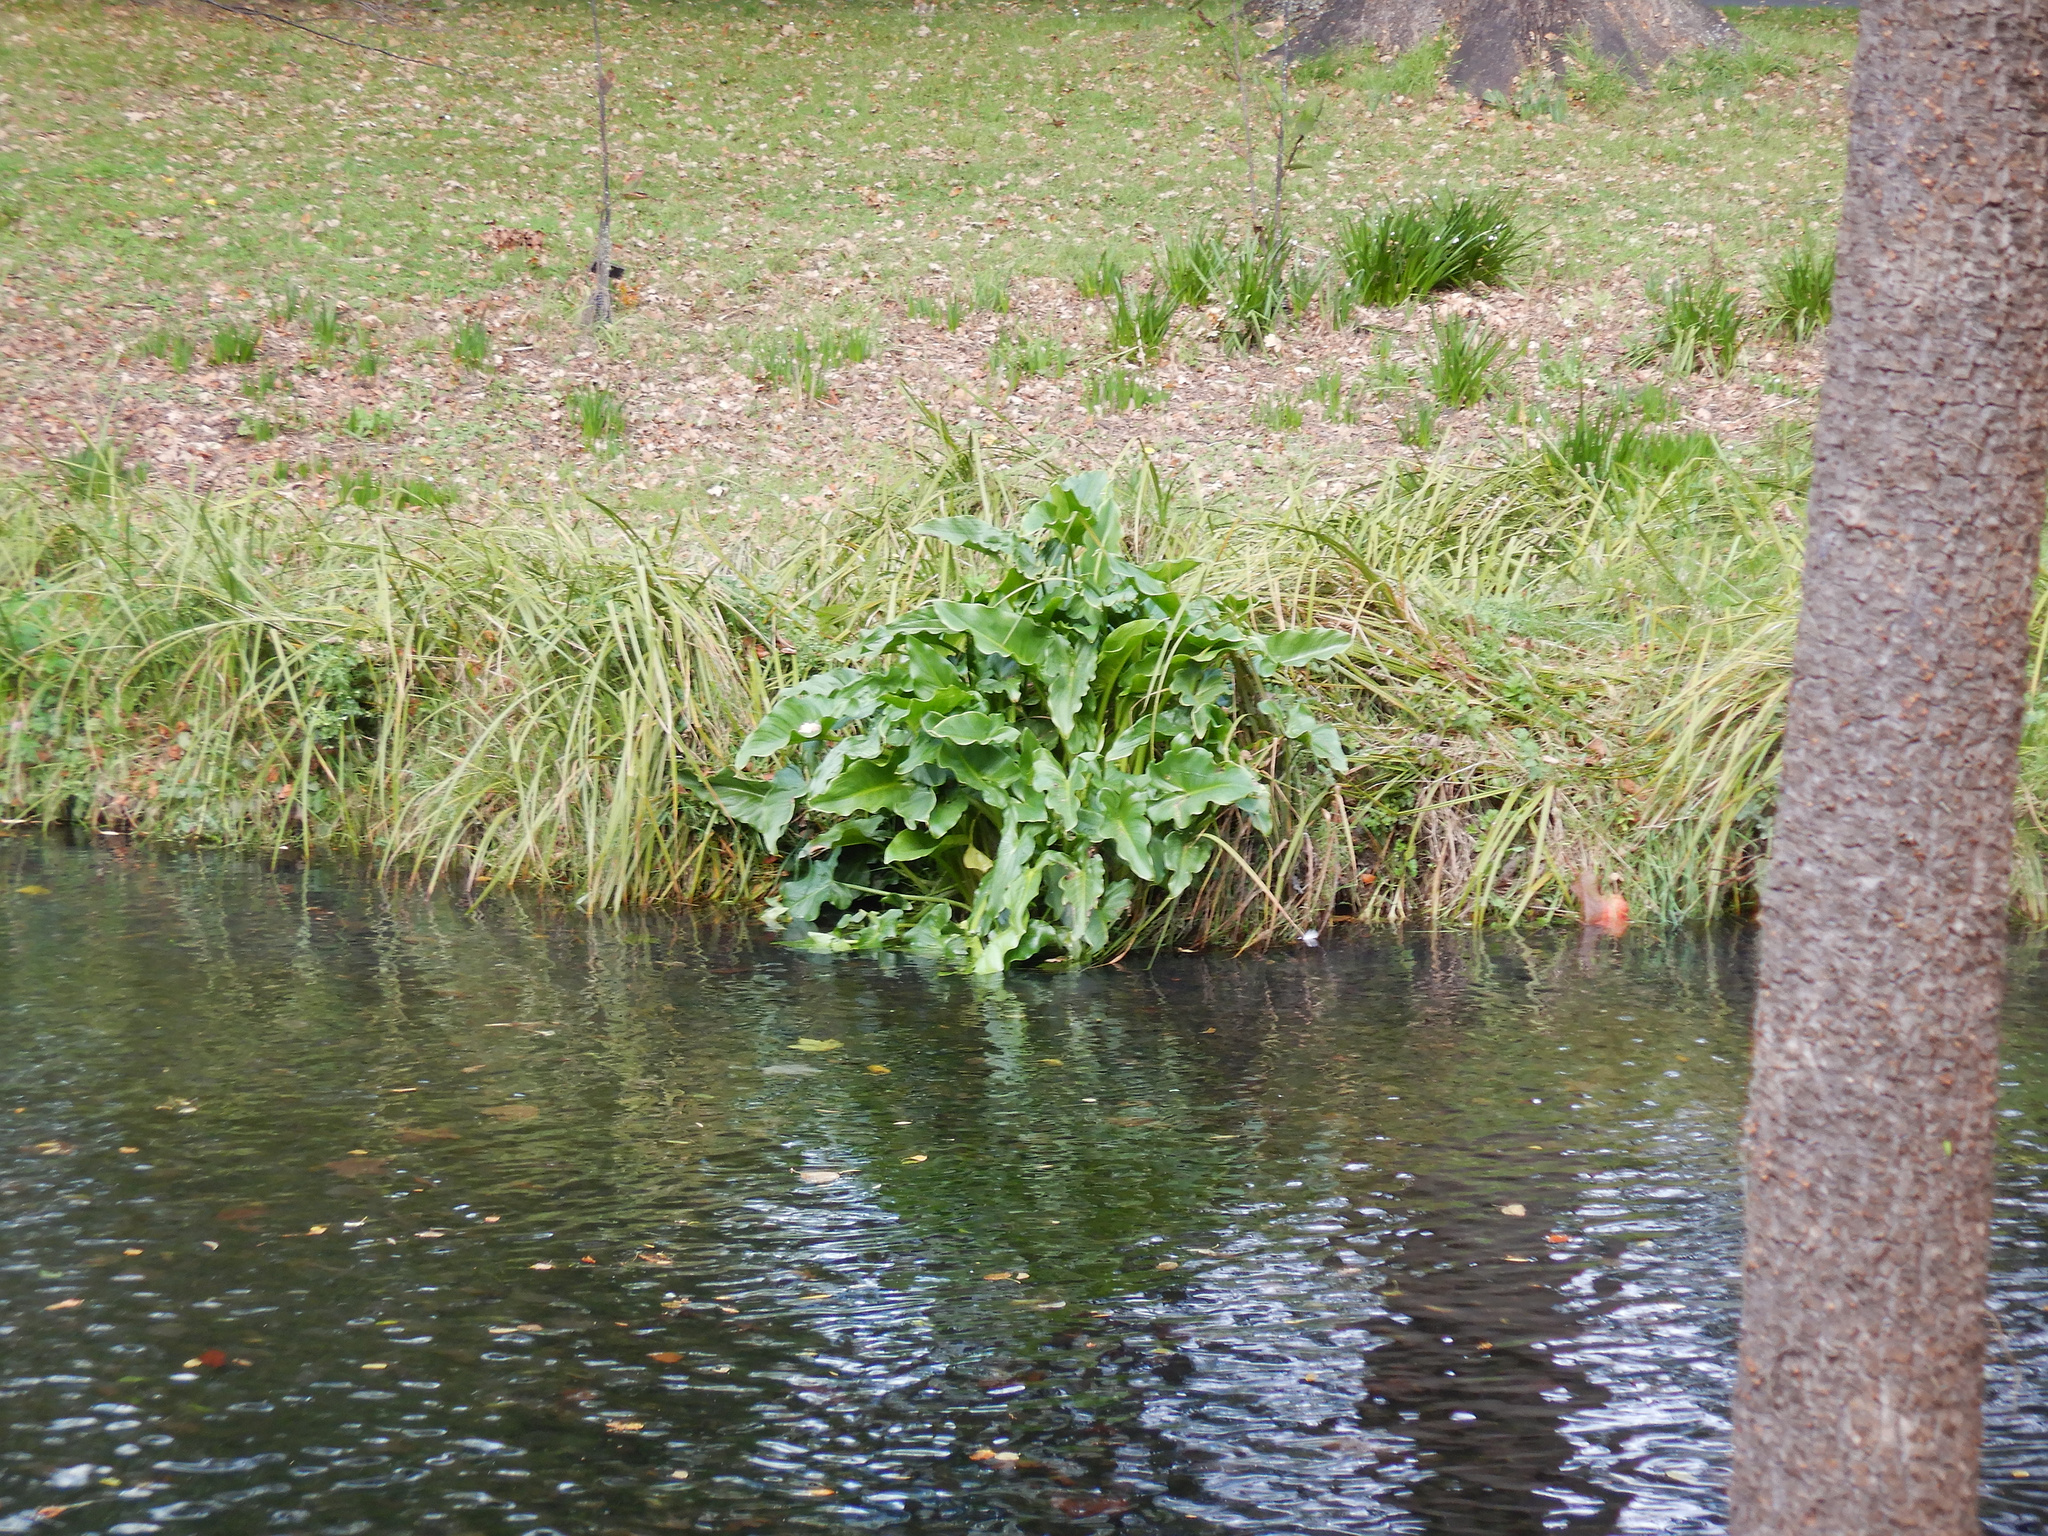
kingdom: Plantae
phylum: Tracheophyta
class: Liliopsida
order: Alismatales
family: Araceae
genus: Zantedeschia
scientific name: Zantedeschia aethiopica
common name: Altar-lily
